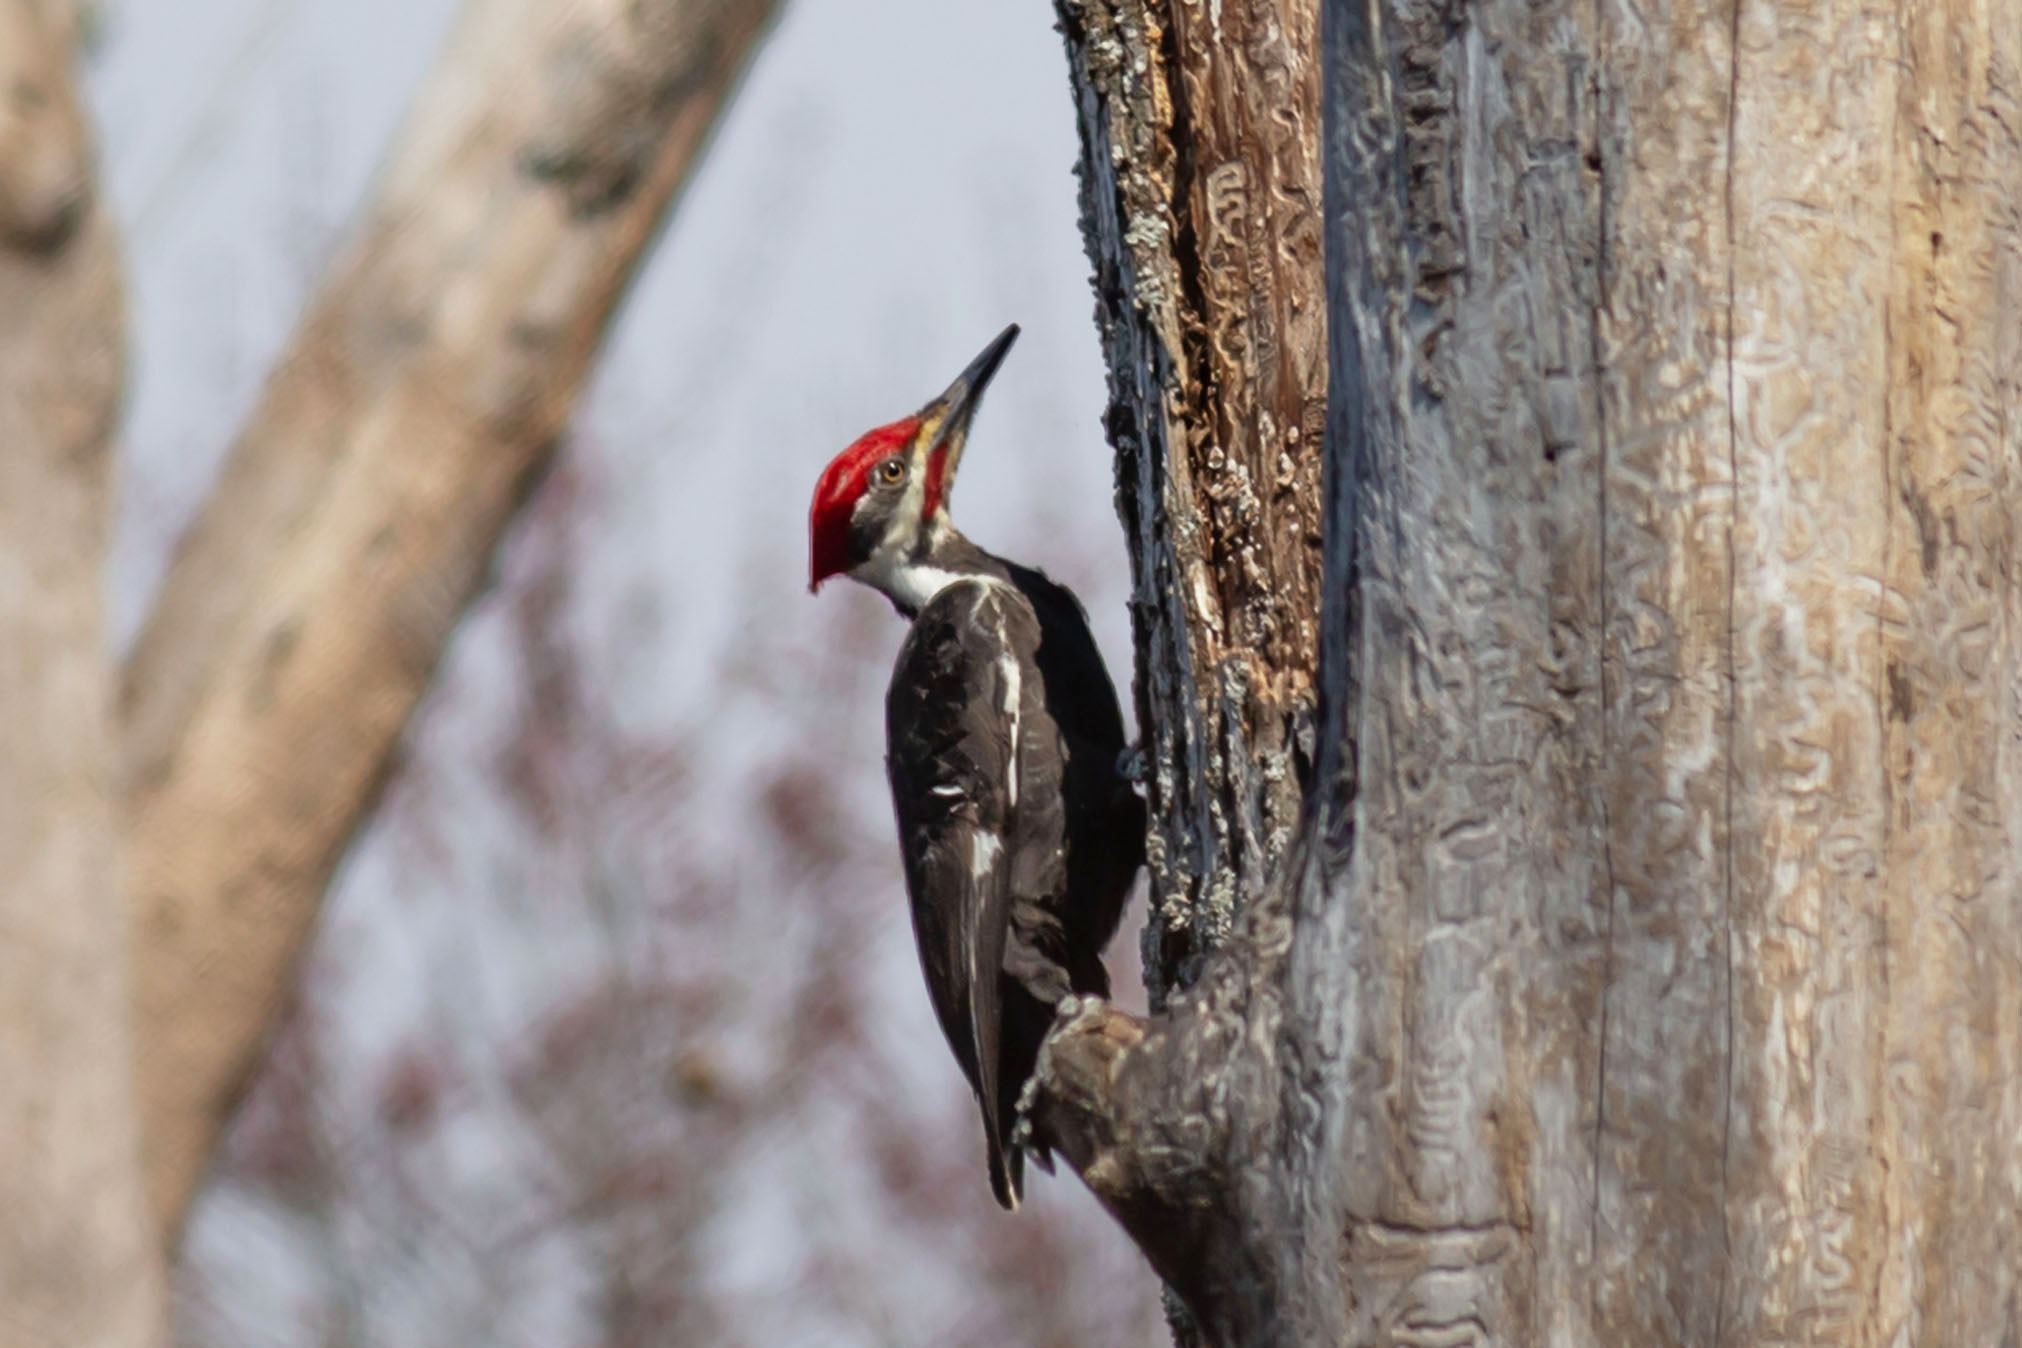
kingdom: Animalia
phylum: Chordata
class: Aves
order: Piciformes
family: Picidae
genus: Dryocopus
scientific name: Dryocopus pileatus
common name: Pileated woodpecker
